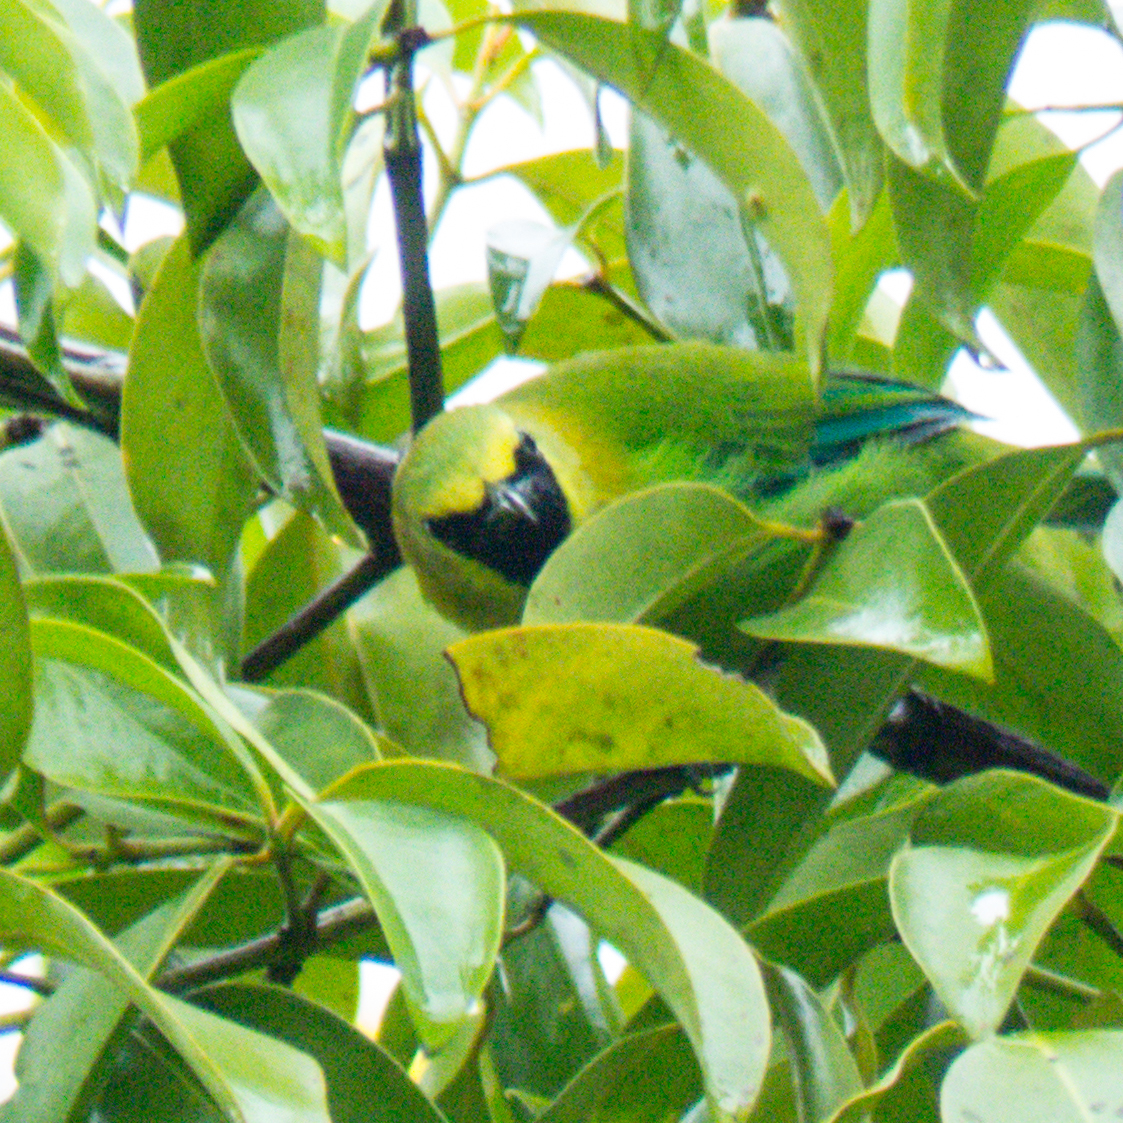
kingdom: Animalia
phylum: Chordata
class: Aves
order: Passeriformes
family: Chloropseidae
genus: Chloropsis
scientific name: Chloropsis moluccensis
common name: Blue-winged leafbird
